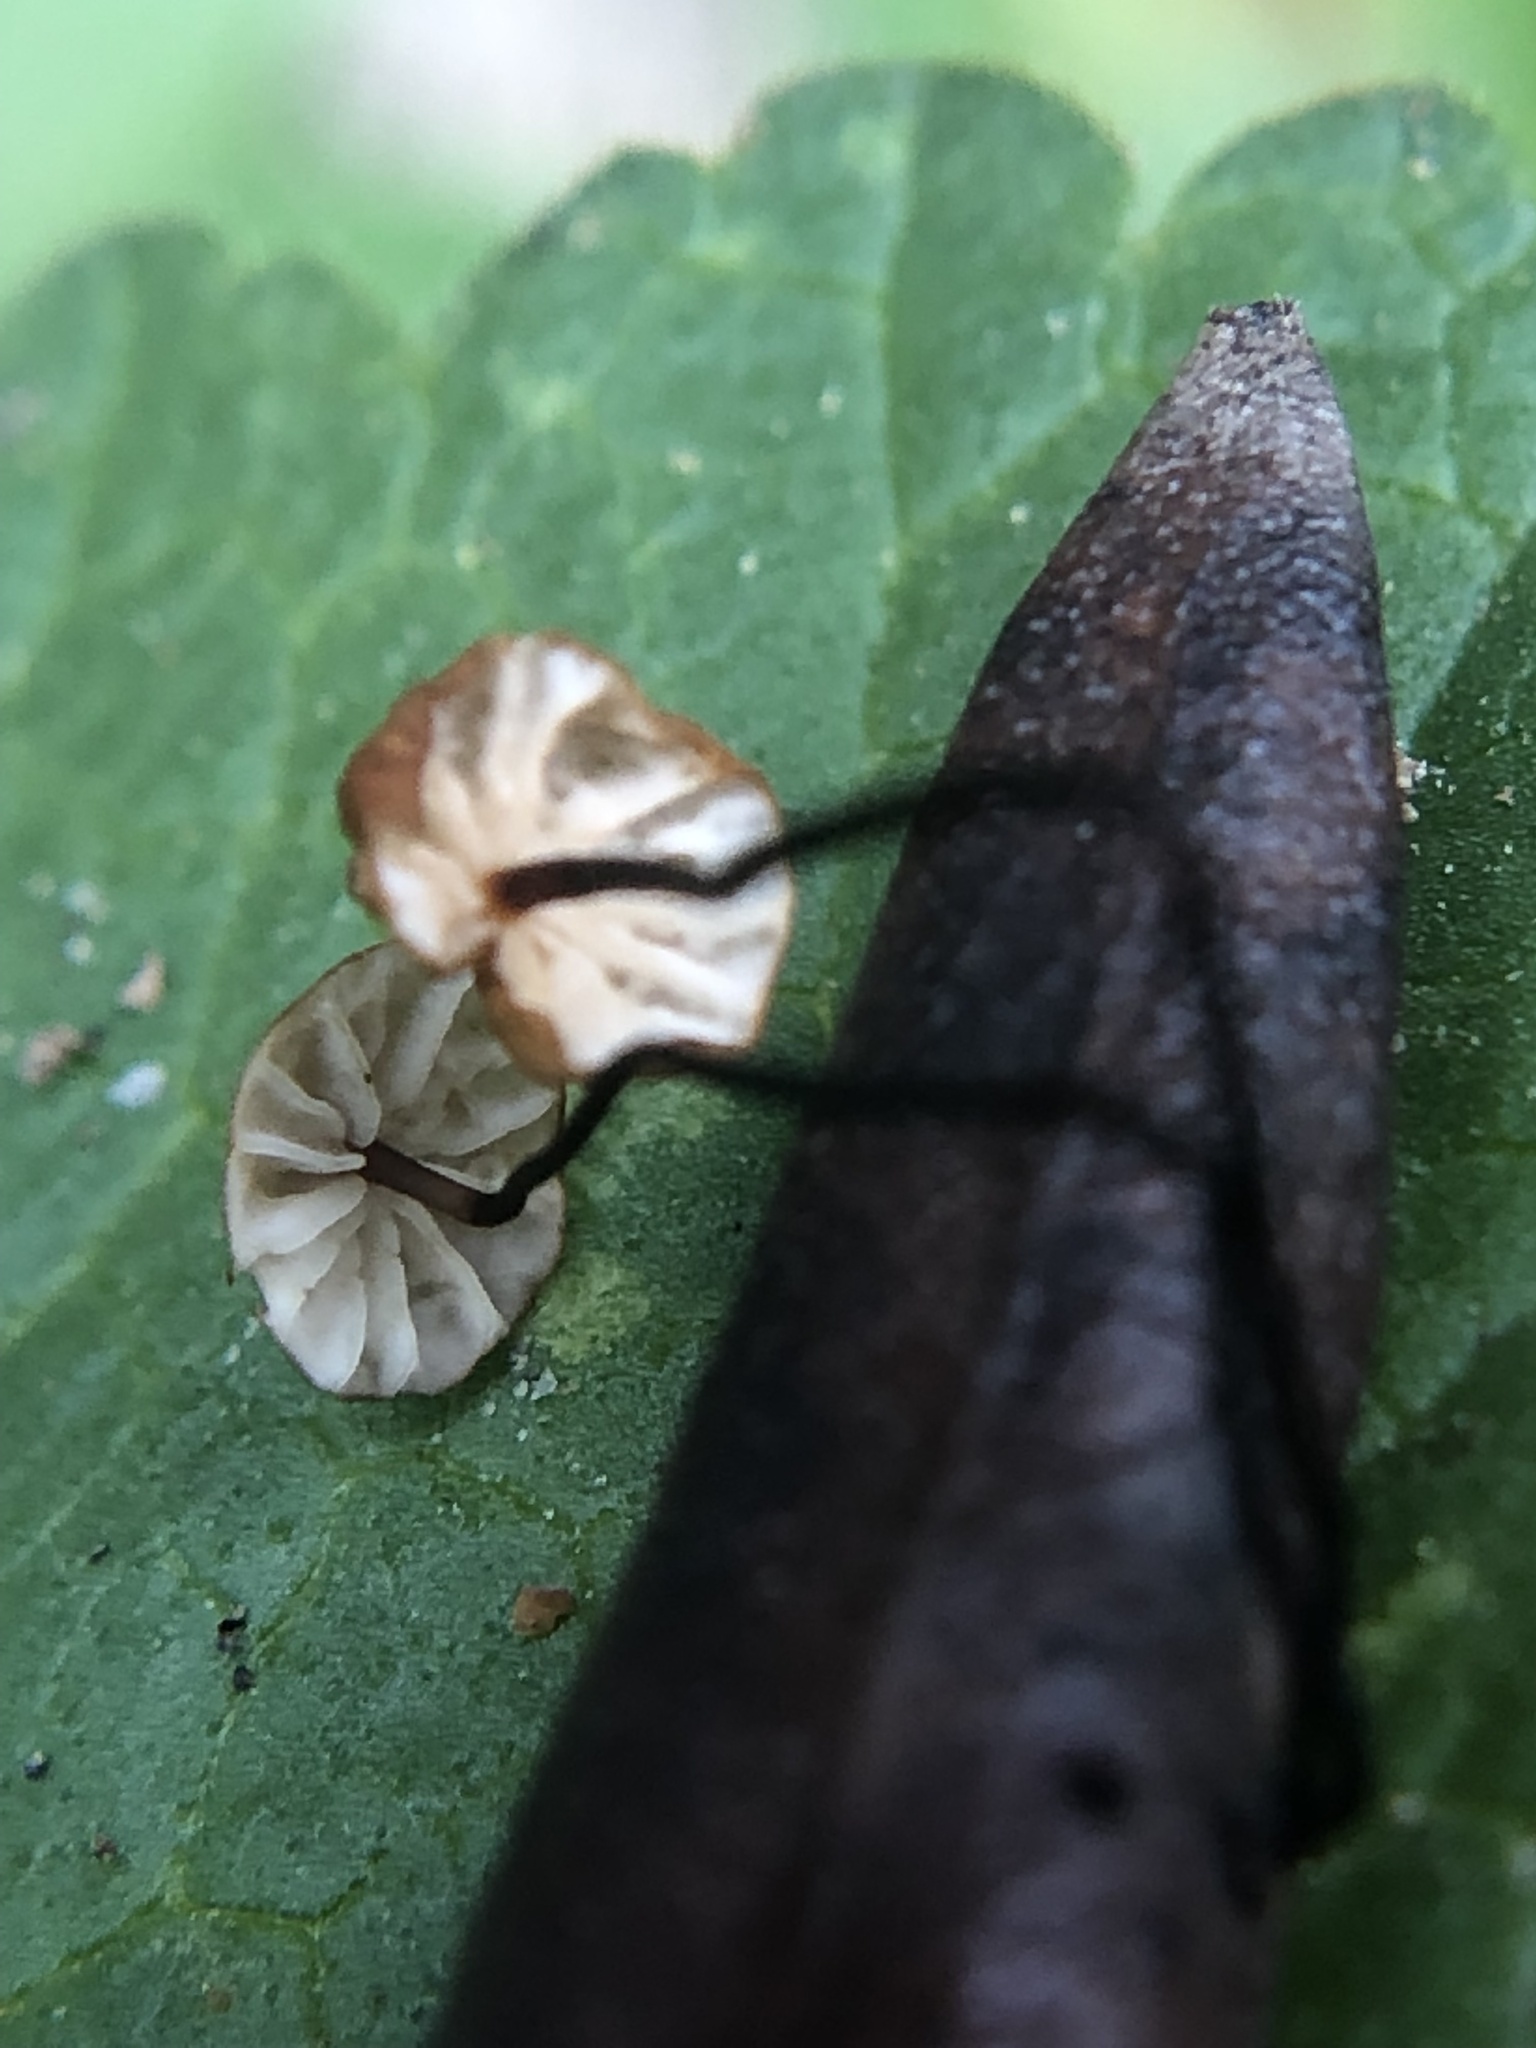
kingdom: Fungi
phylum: Basidiomycota
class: Agaricomycetes
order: Agaricales
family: Physalacriaceae
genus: Cryptomarasmius
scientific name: Cryptomarasmius corbariensis
